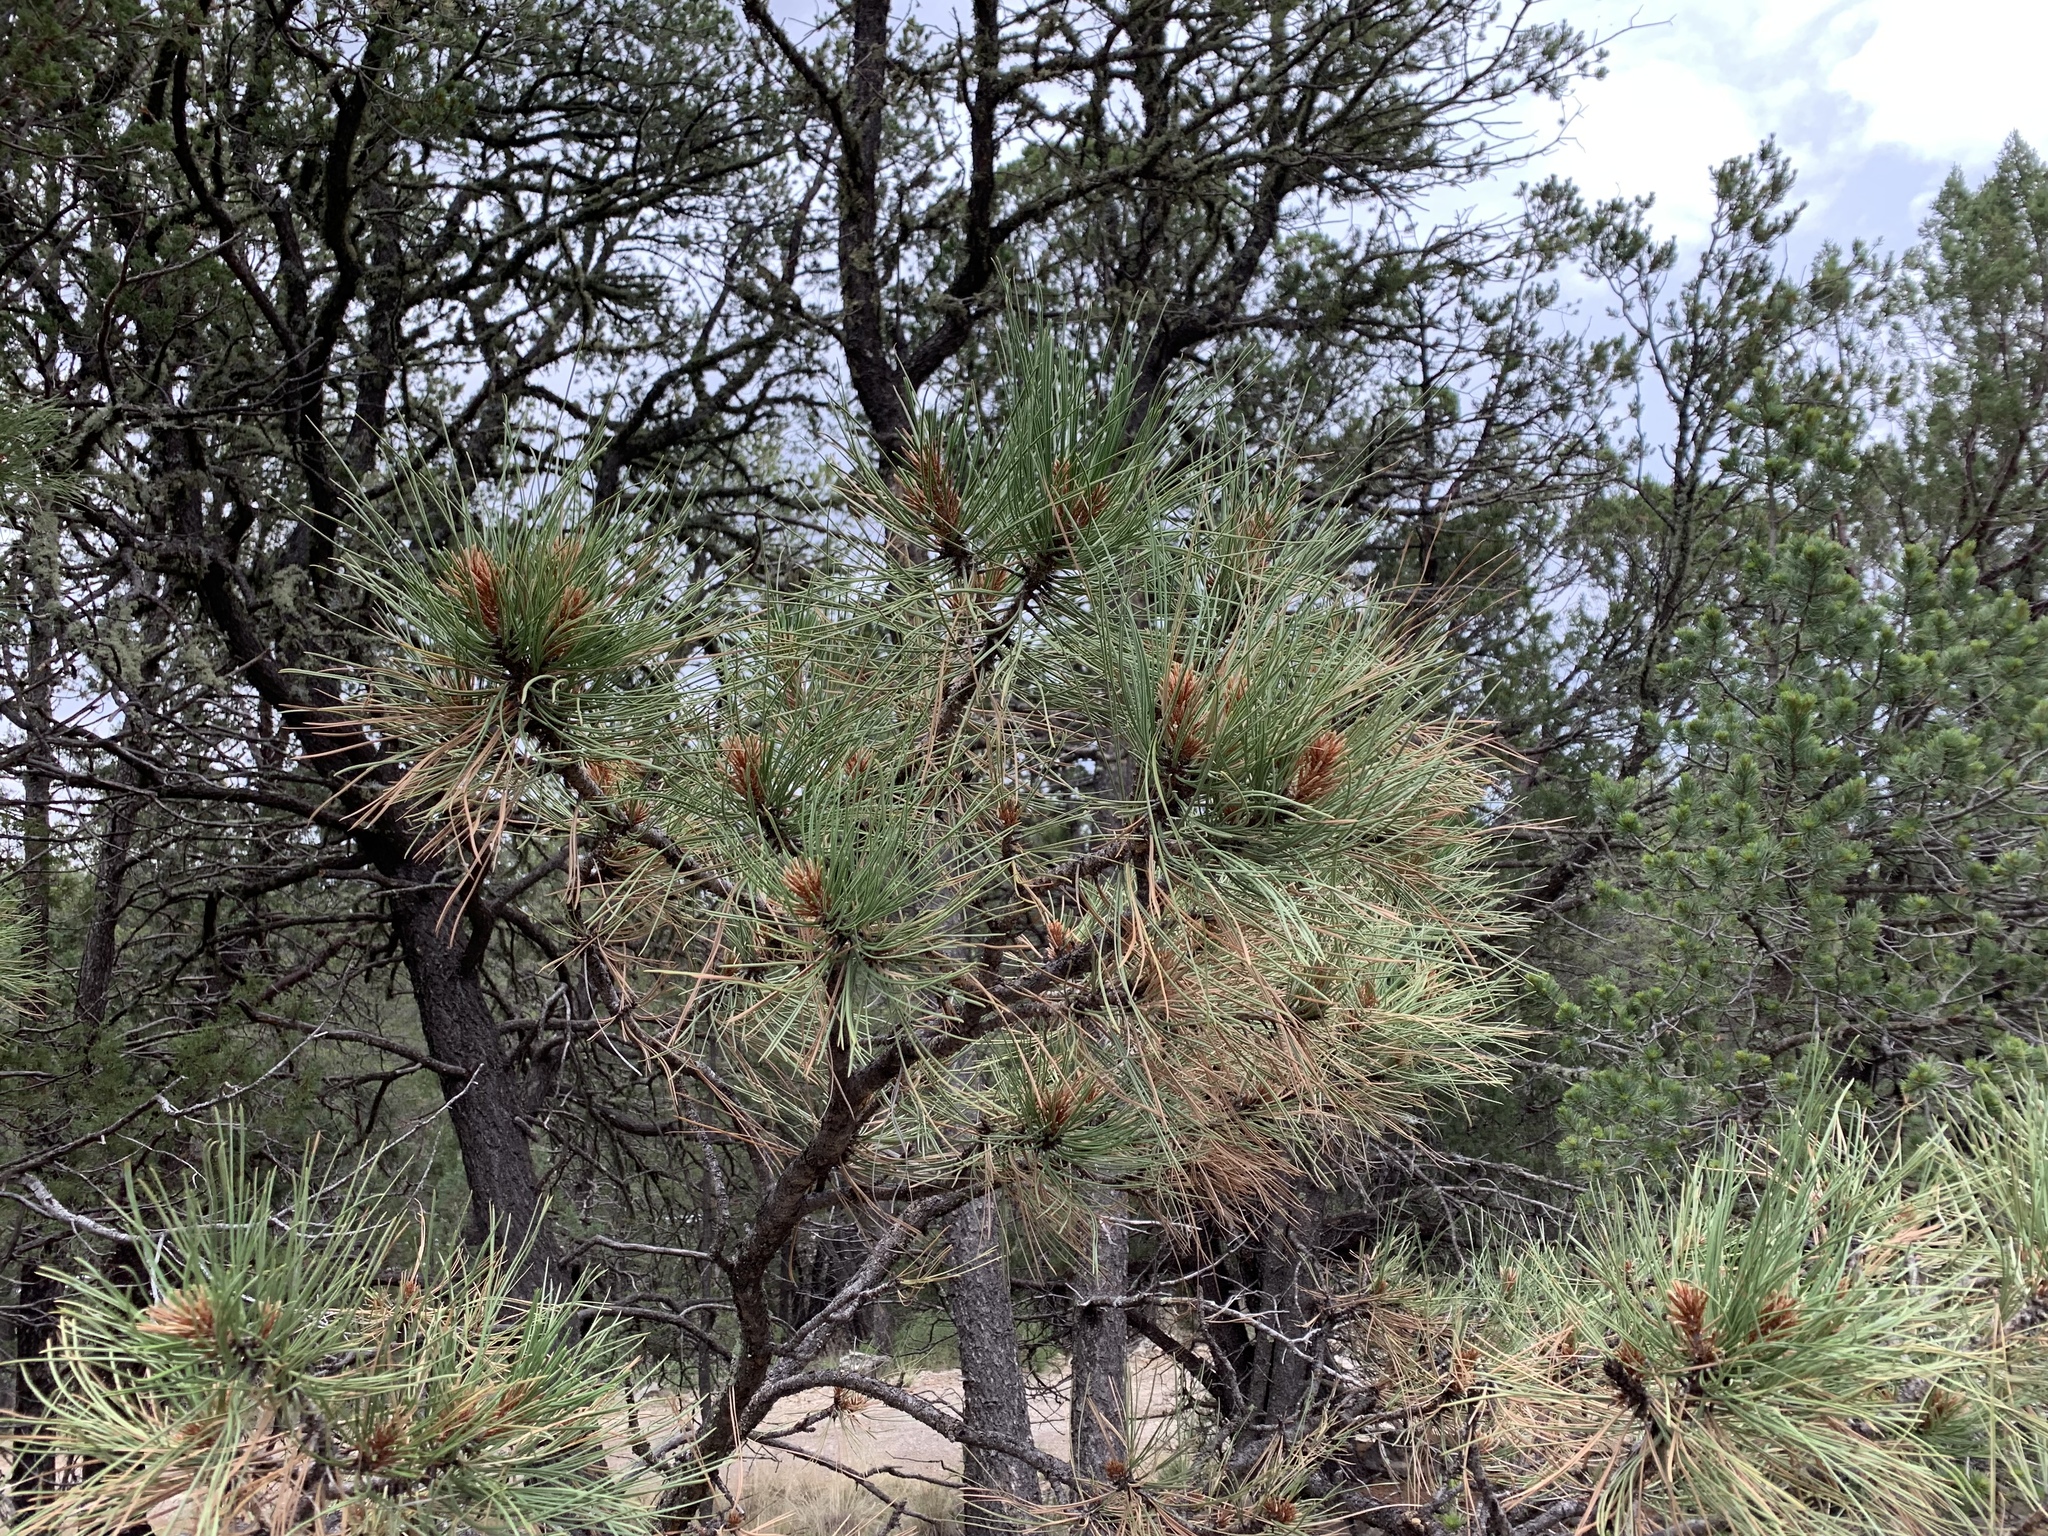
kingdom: Plantae
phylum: Tracheophyta
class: Pinopsida
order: Pinales
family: Pinaceae
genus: Pinus
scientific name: Pinus ponderosa
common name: Western yellow-pine
